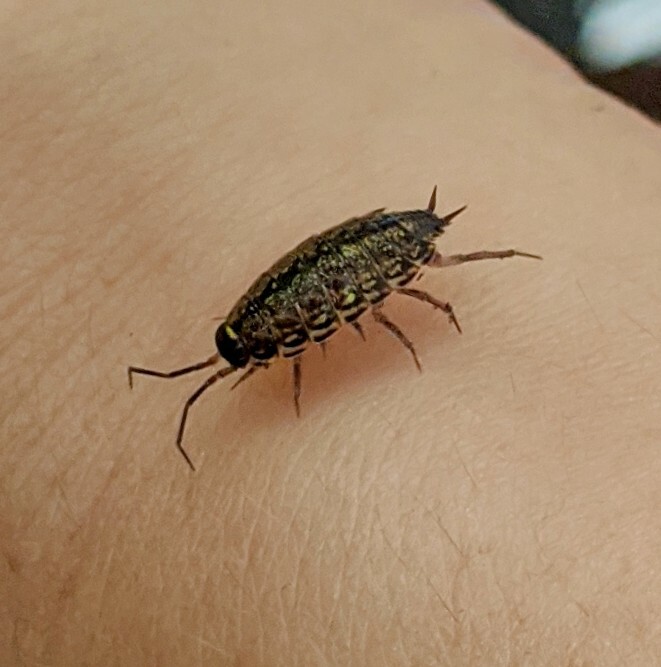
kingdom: Animalia
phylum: Arthropoda
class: Malacostraca
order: Isopoda
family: Philosciidae
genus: Philoscia
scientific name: Philoscia muscorum
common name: Common striped woodlouse
